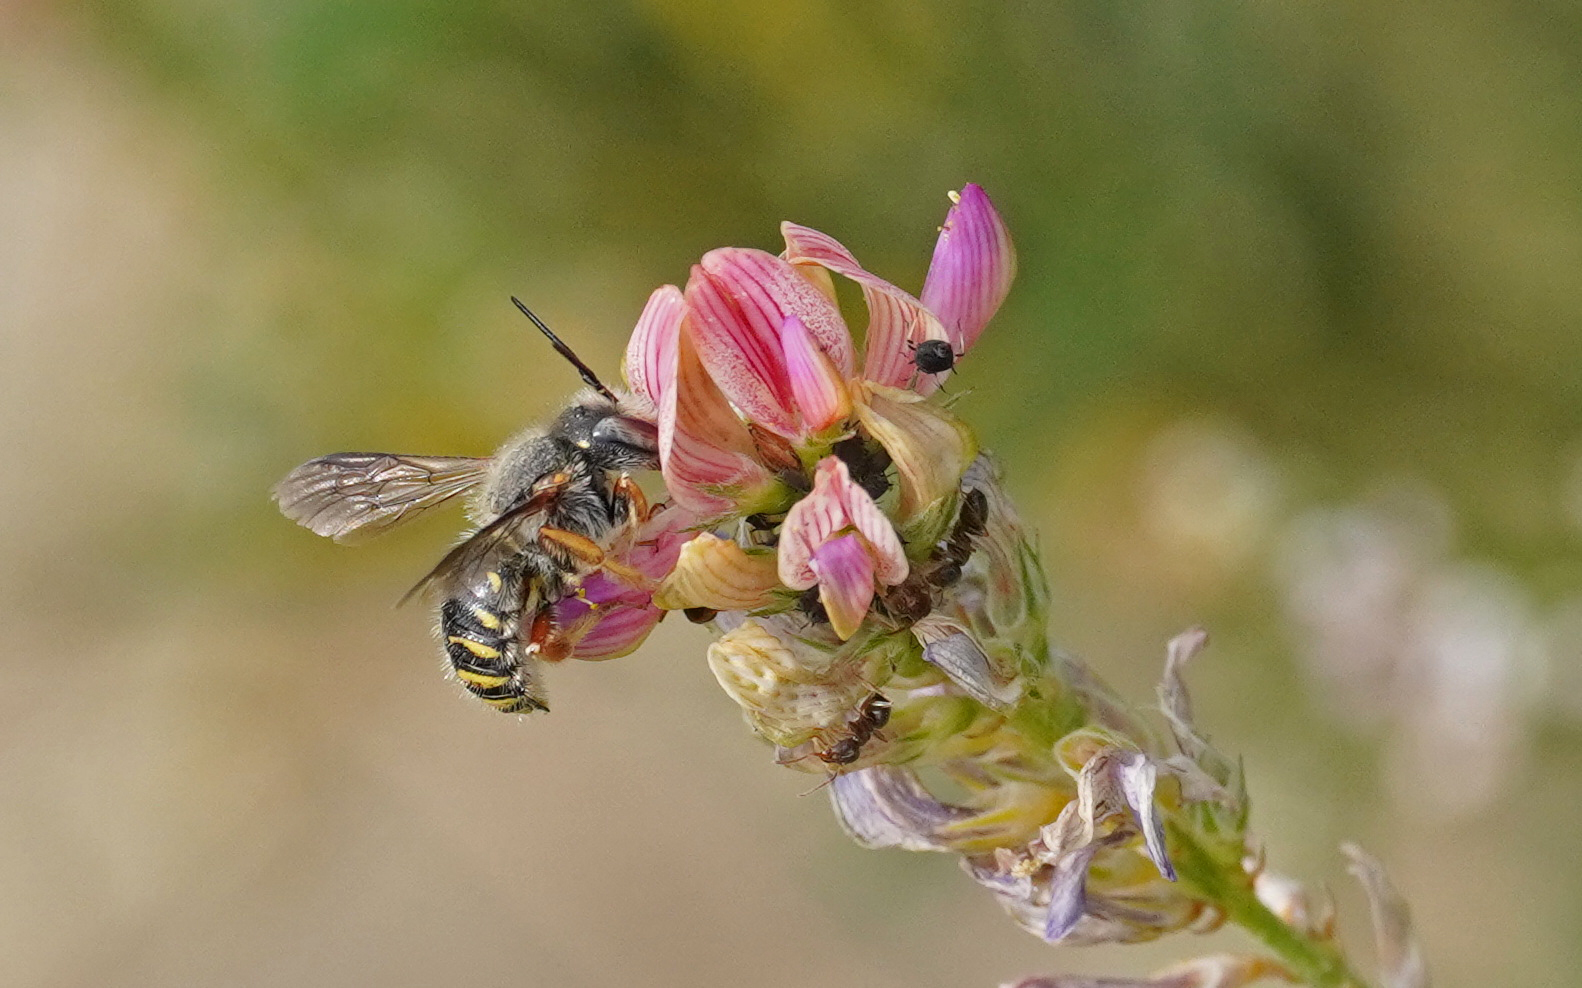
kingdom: Animalia
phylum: Arthropoda
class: Insecta
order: Hymenoptera
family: Megachilidae
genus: Anthidium
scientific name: Anthidium oblongatum
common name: Oblong wool carder bee
